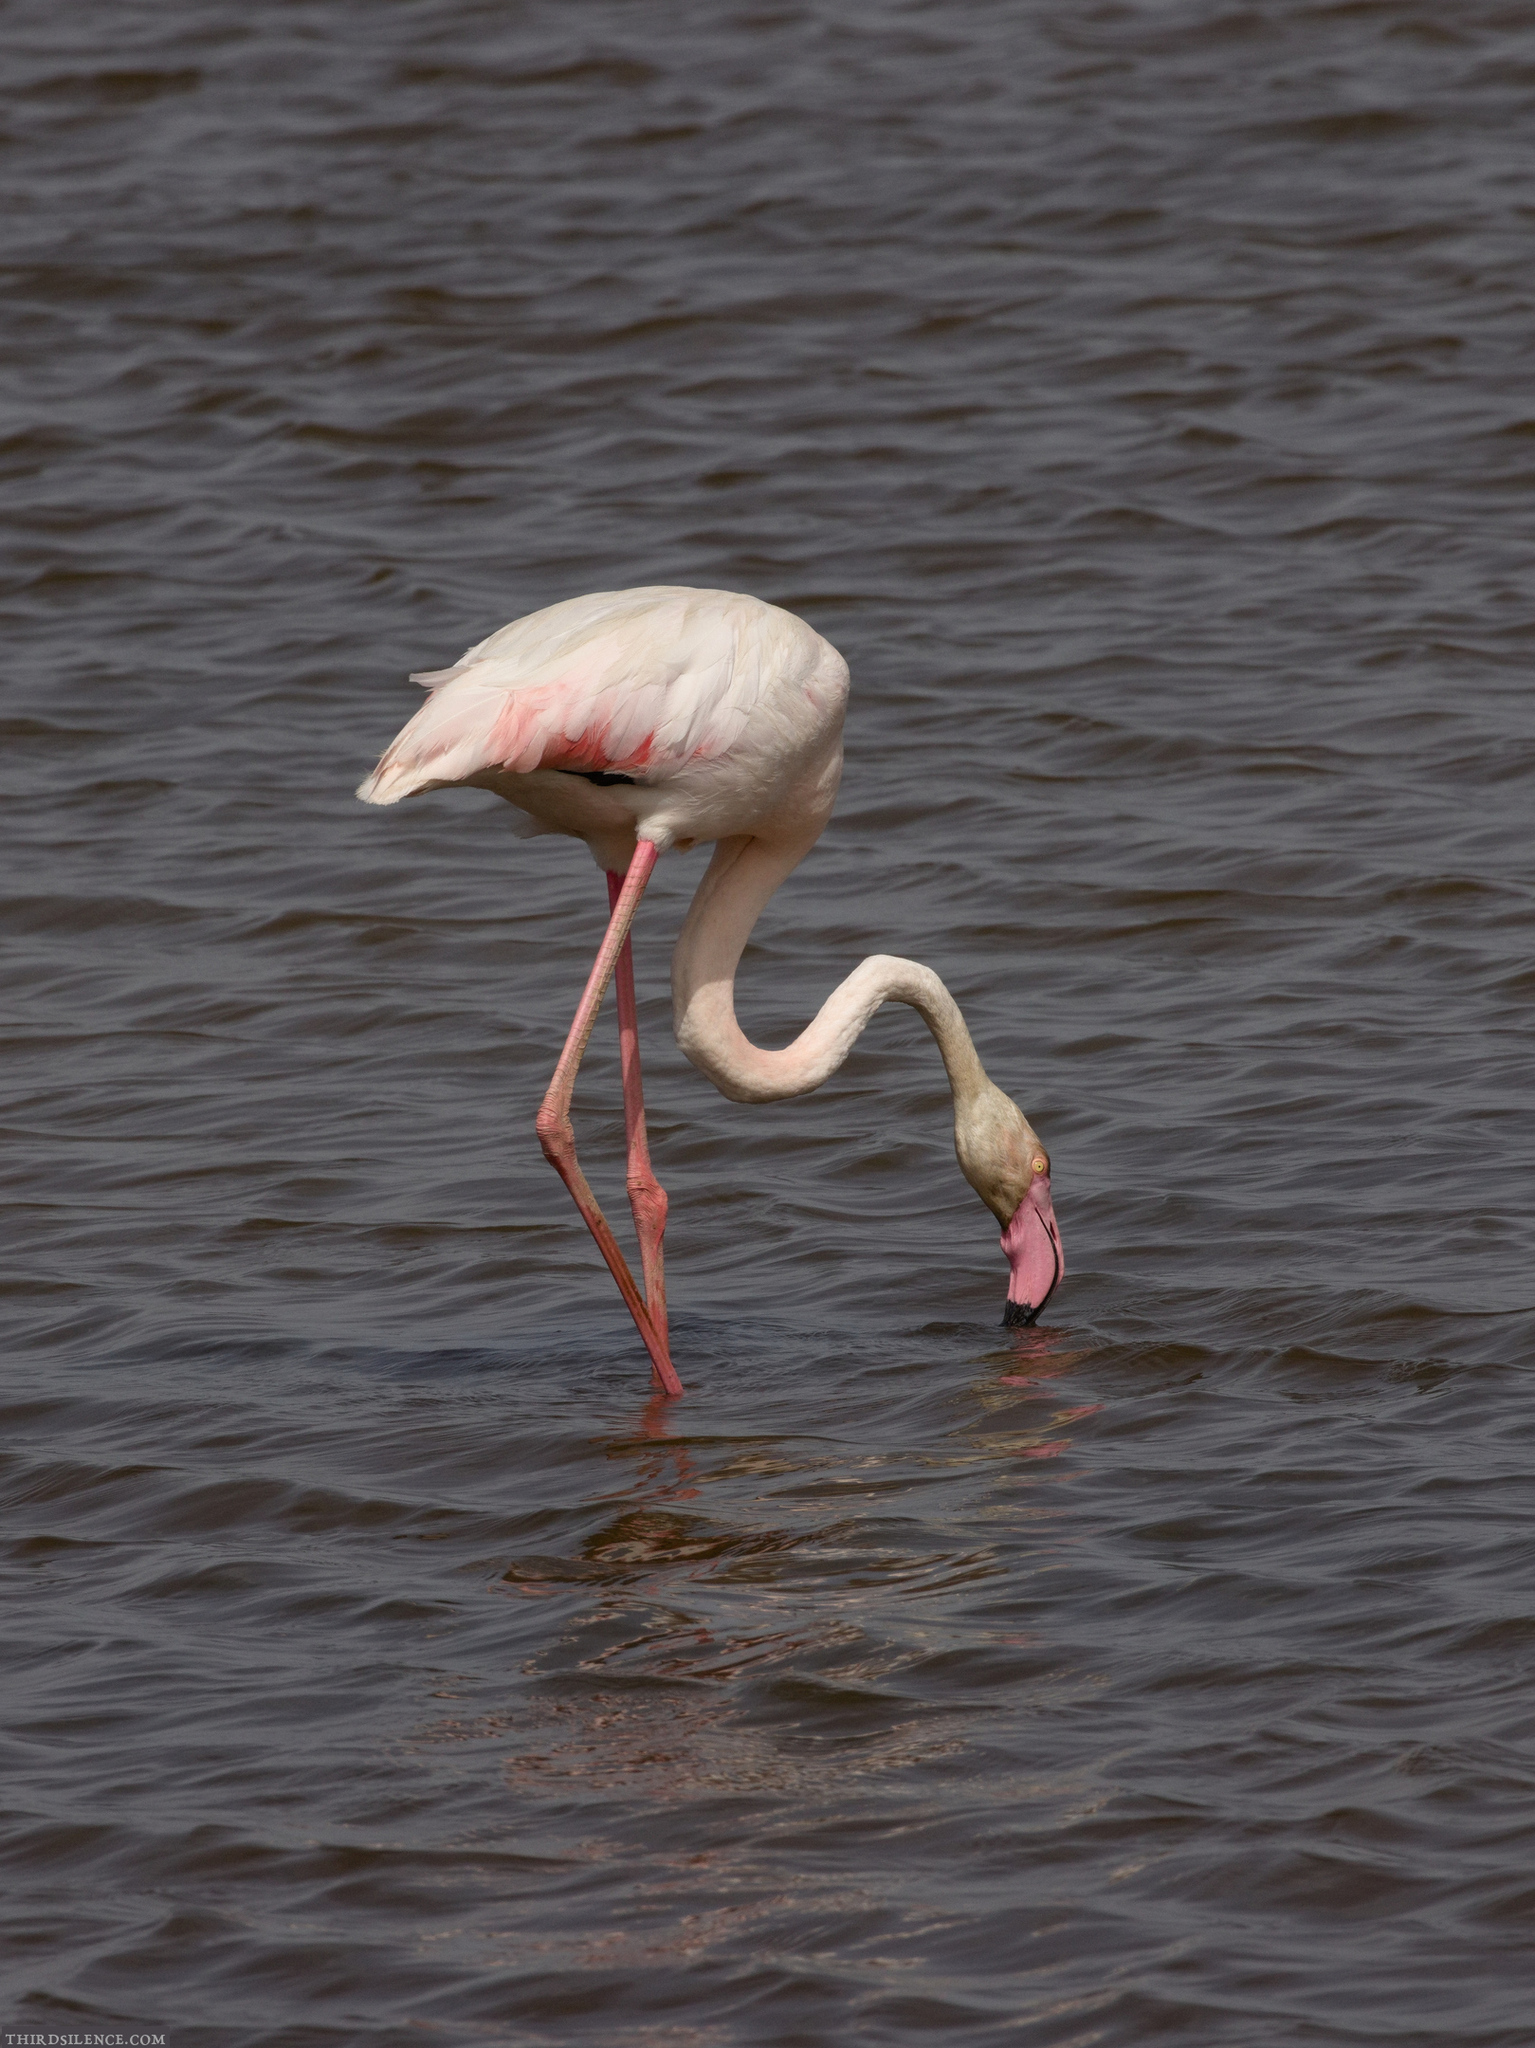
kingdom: Animalia
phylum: Chordata
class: Aves
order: Phoenicopteriformes
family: Phoenicopteridae
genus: Phoenicopterus
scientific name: Phoenicopterus roseus
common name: Greater flamingo
